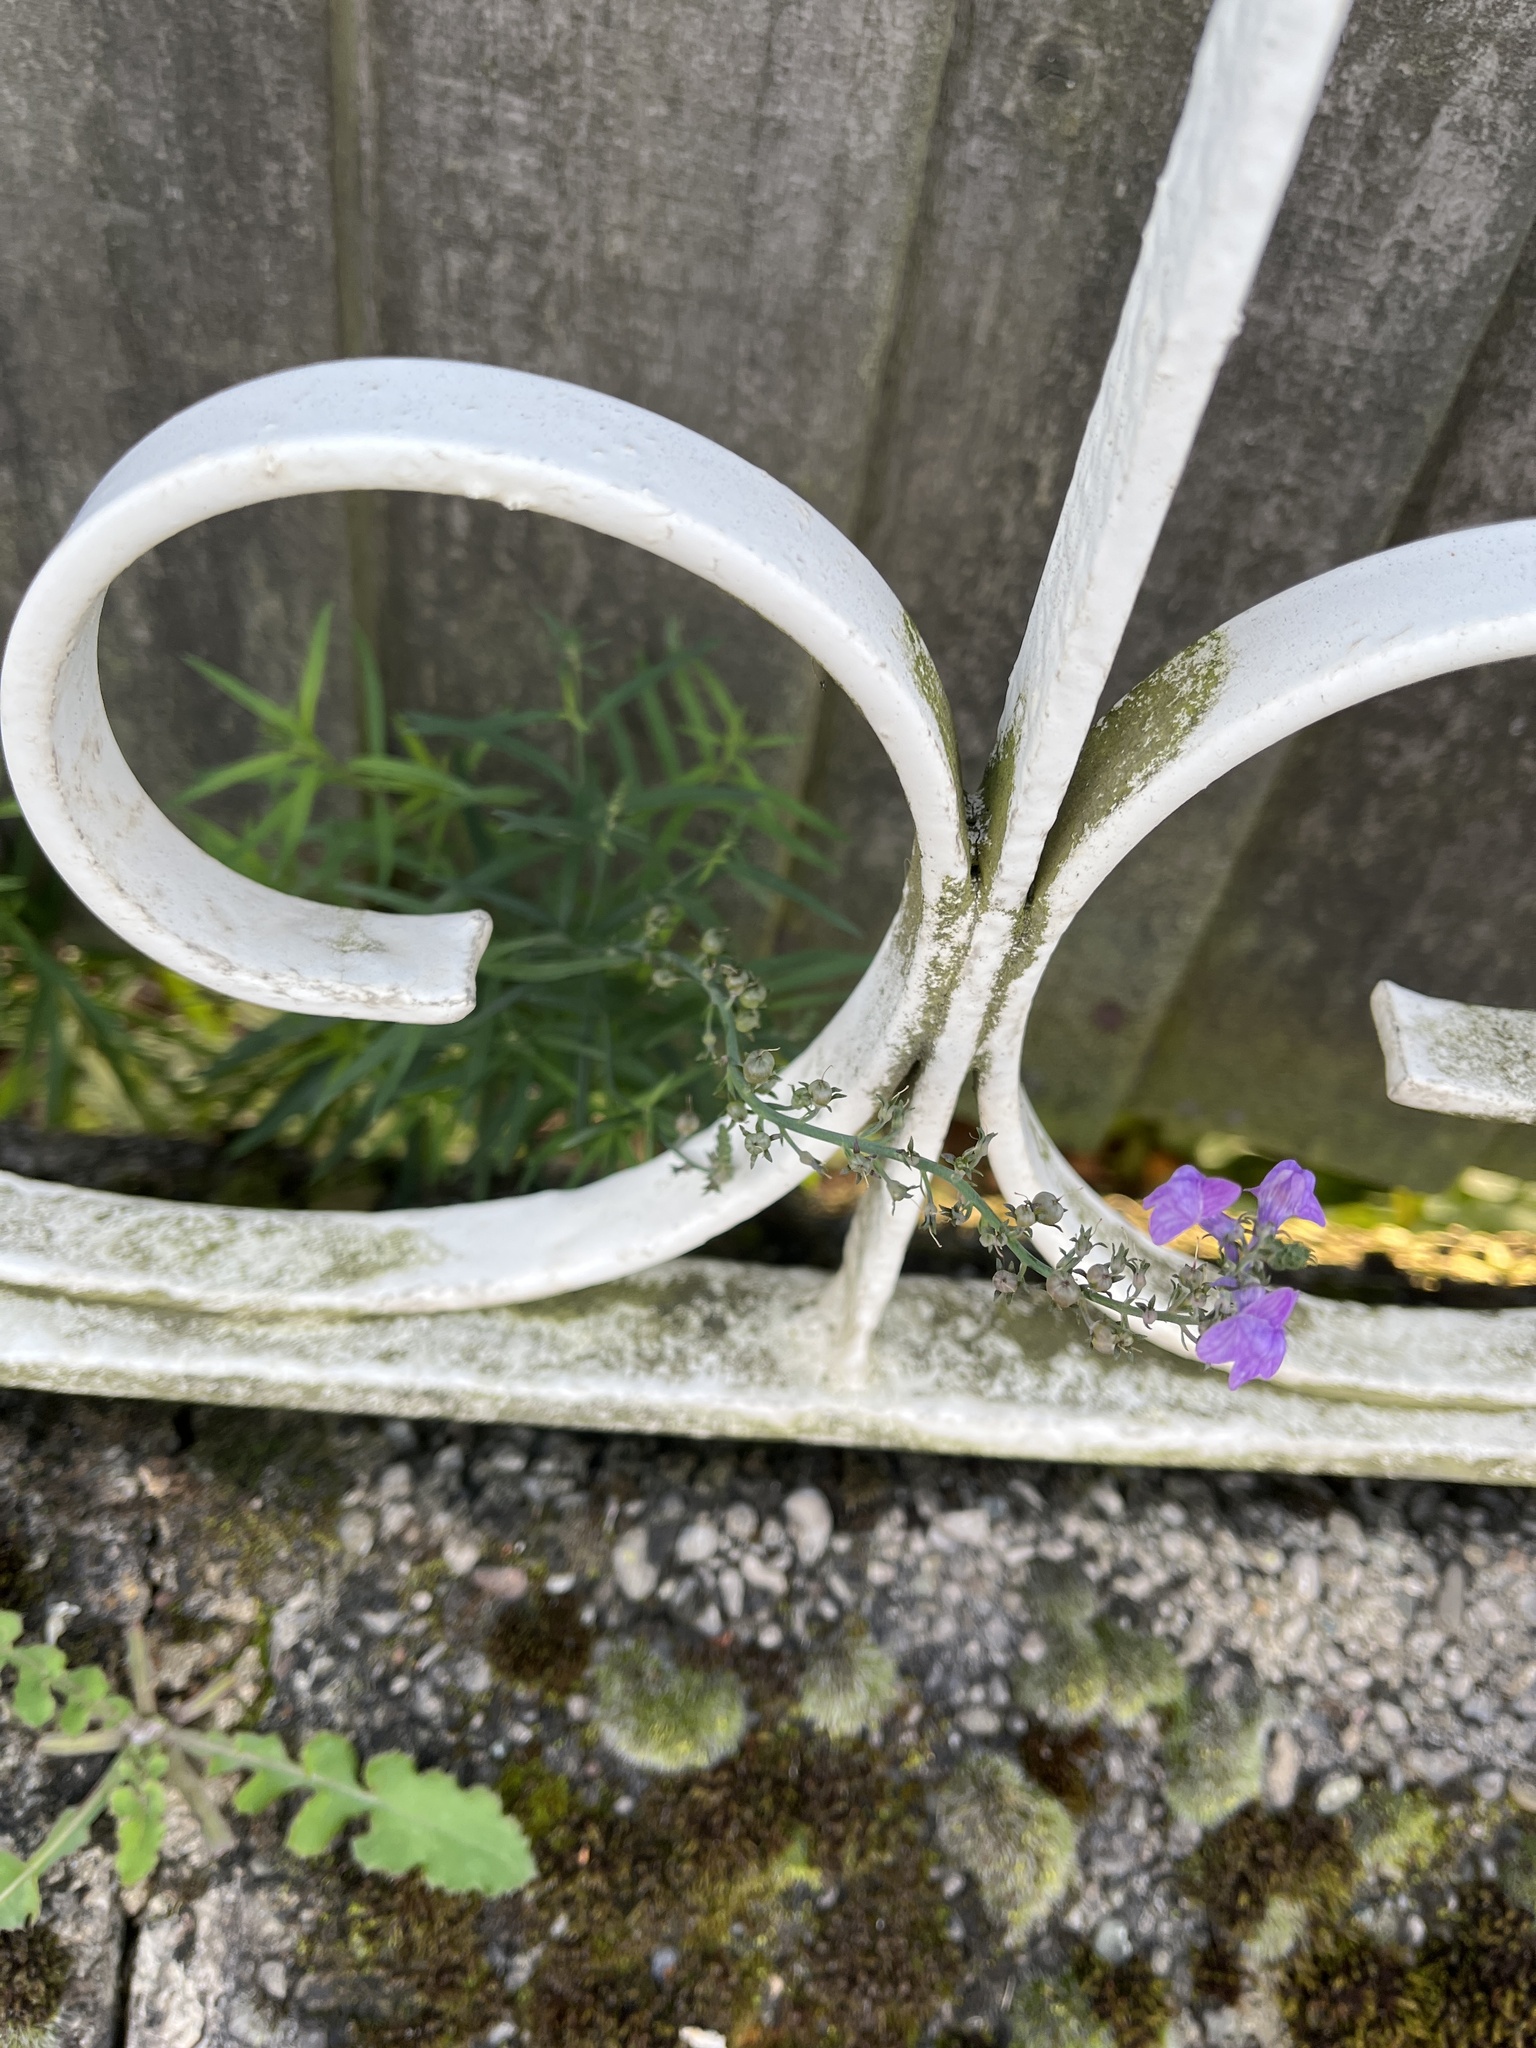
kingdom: Plantae
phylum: Tracheophyta
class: Magnoliopsida
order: Lamiales
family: Plantaginaceae
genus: Linaria
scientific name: Linaria purpurea
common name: Purple toadflax
